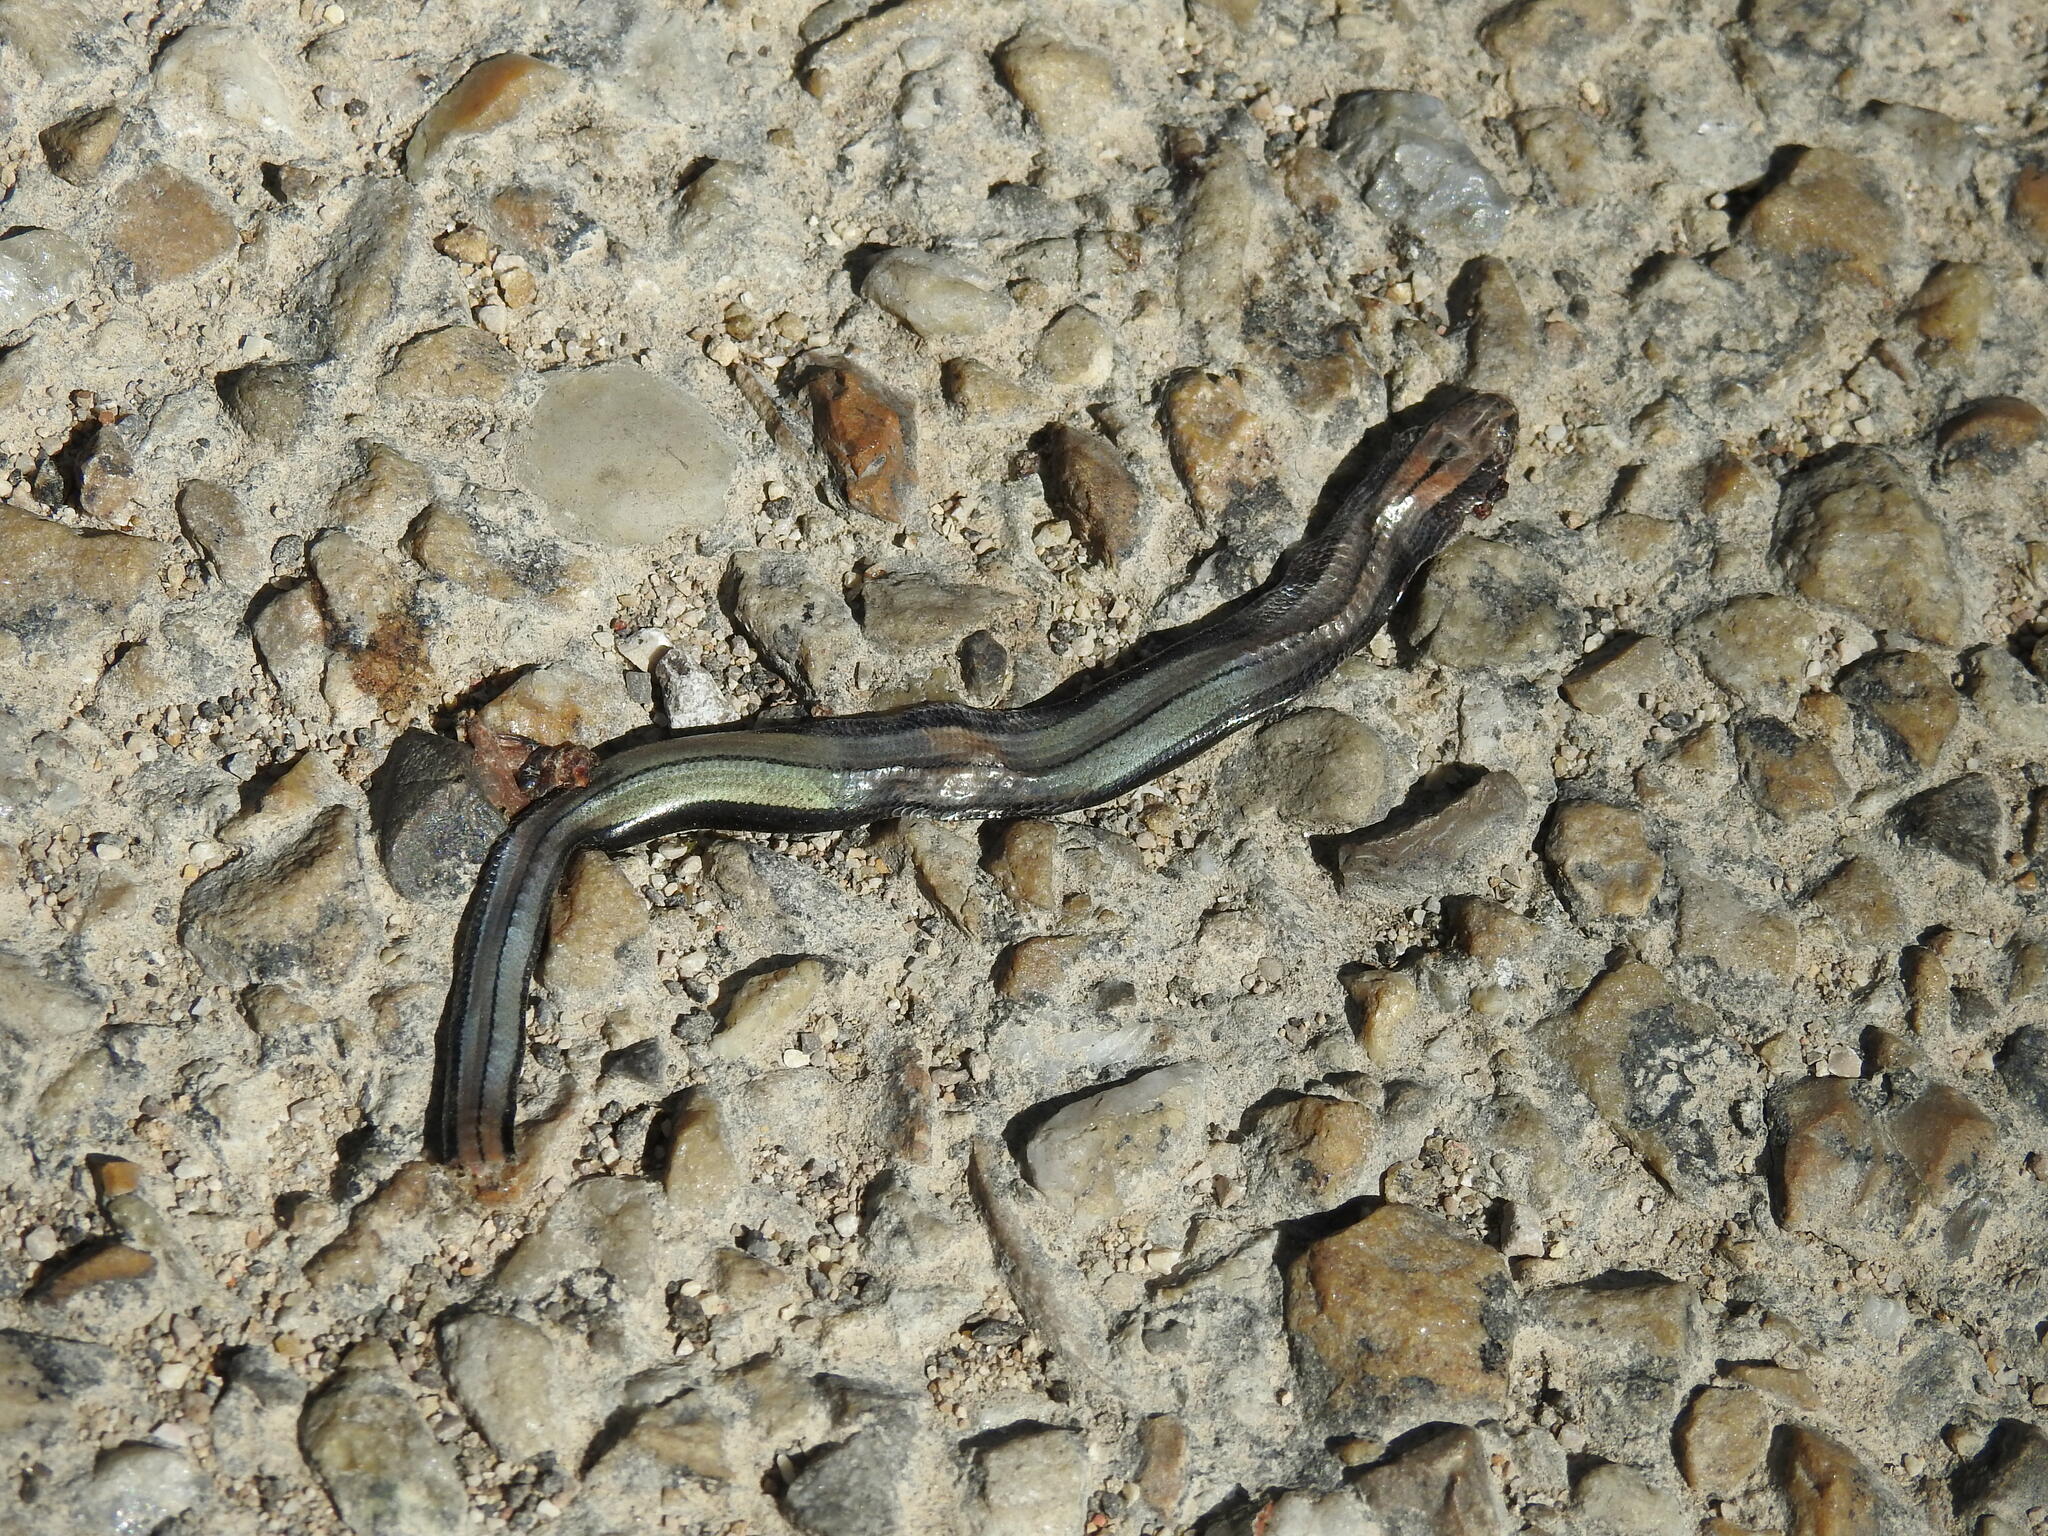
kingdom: Animalia
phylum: Chordata
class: Squamata
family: Anguidae
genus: Anguis
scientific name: Anguis fragilis
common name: Slow worm
